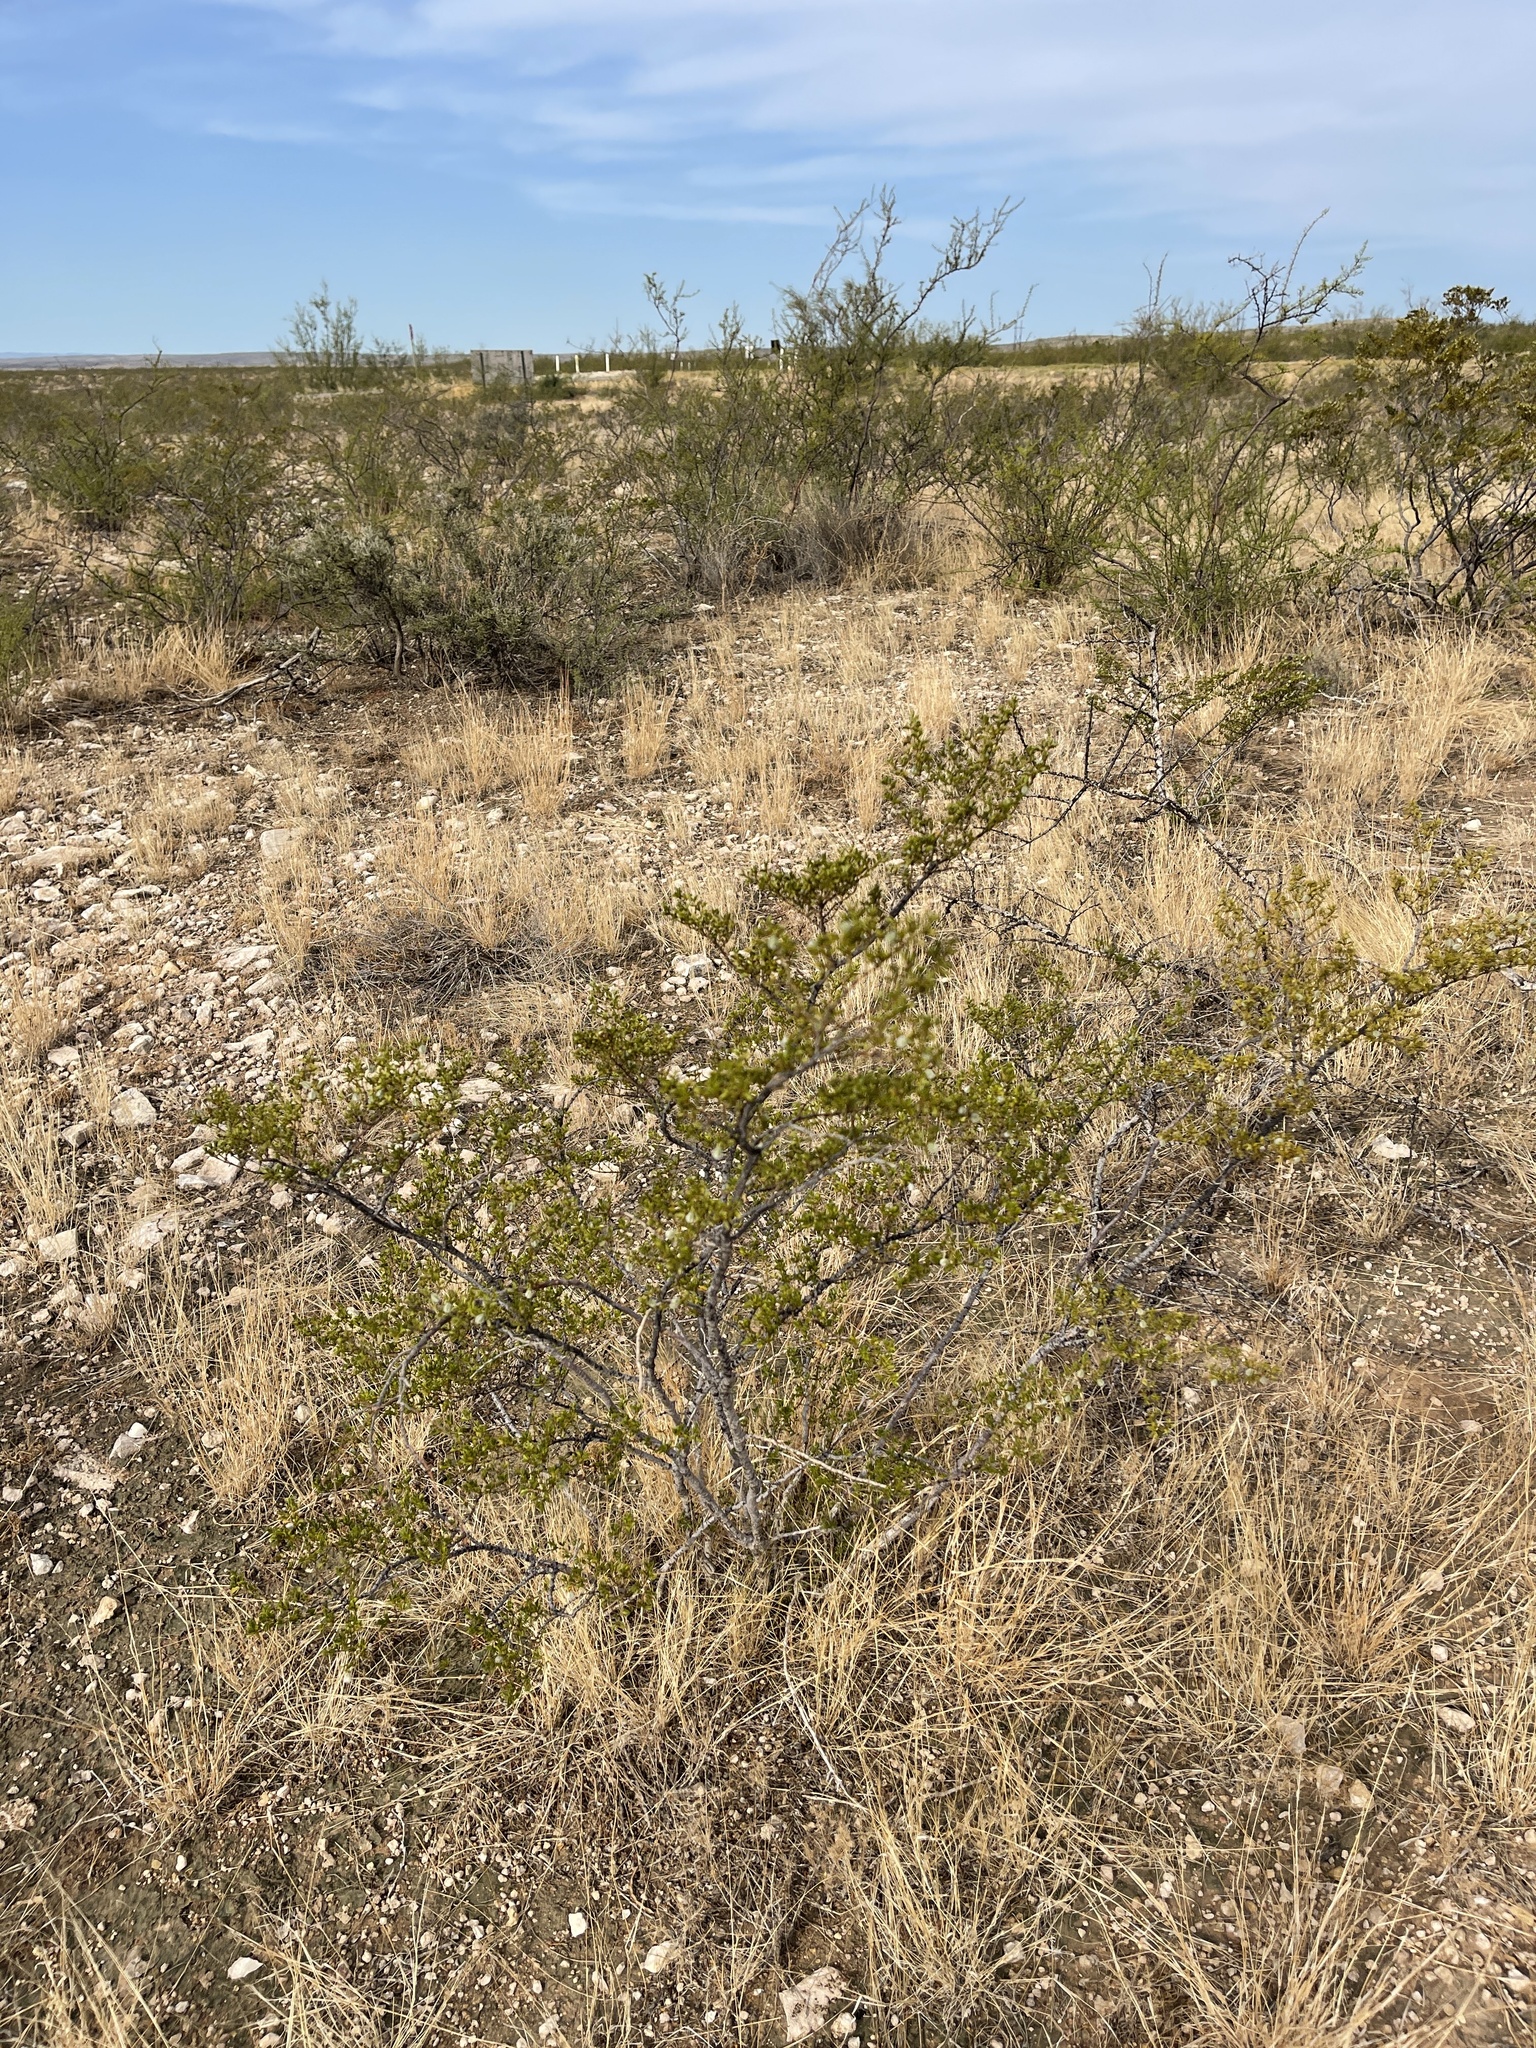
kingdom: Plantae
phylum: Tracheophyta
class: Magnoliopsida
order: Zygophyllales
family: Zygophyllaceae
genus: Larrea
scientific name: Larrea tridentata
